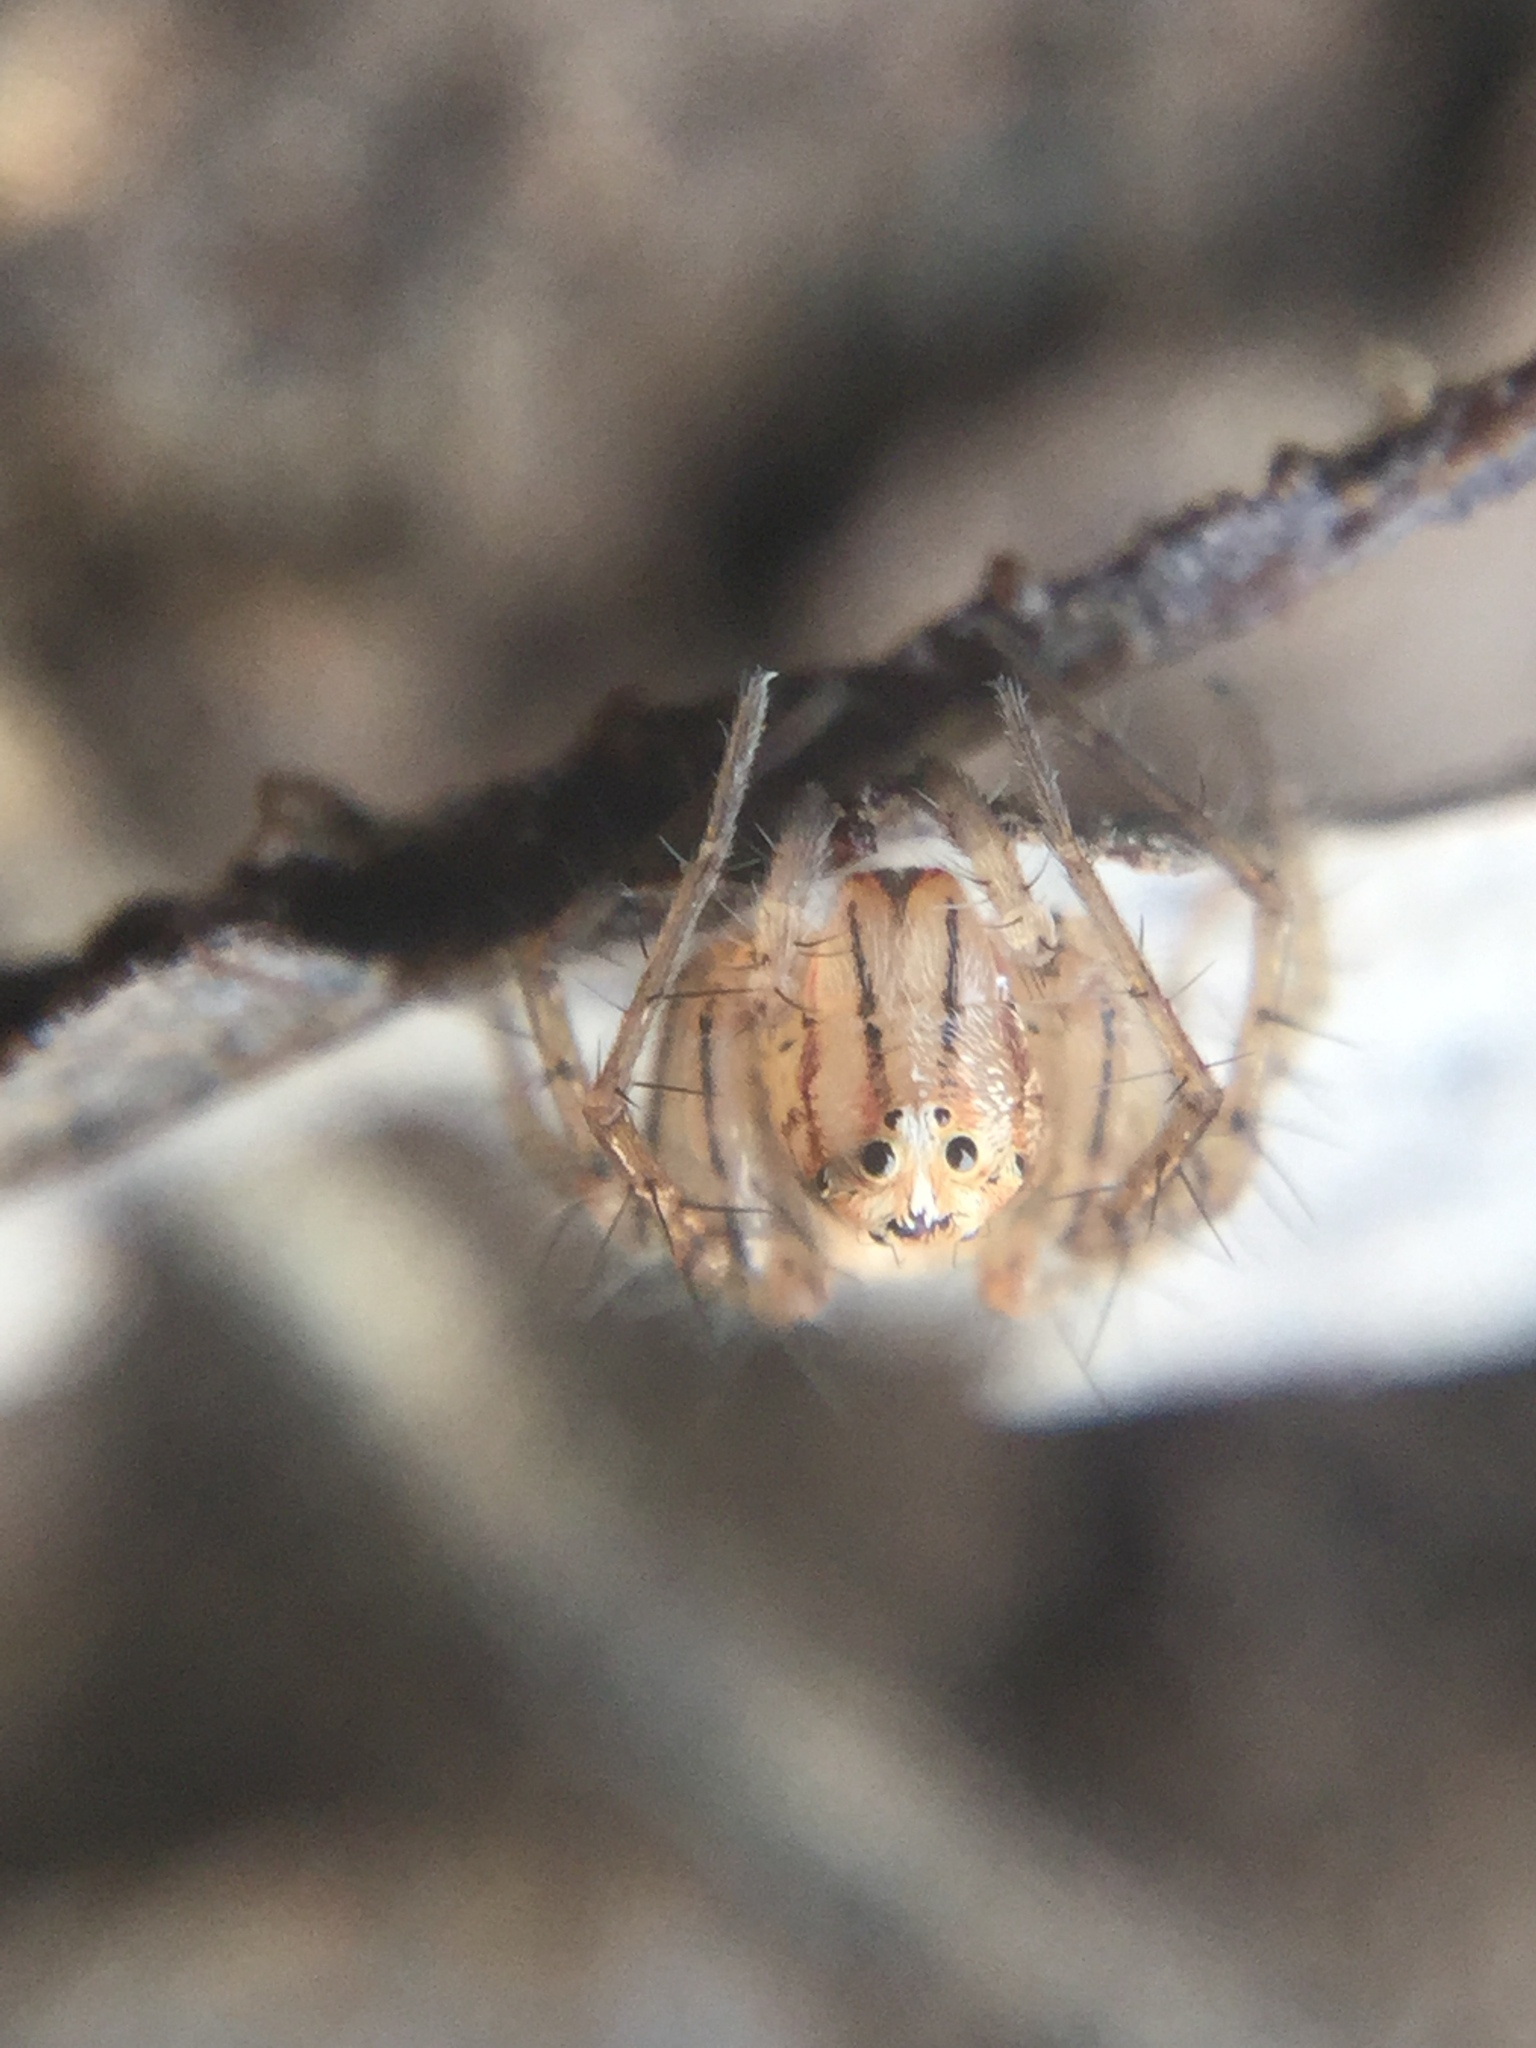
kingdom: Animalia
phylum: Arthropoda
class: Arachnida
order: Araneae
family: Oxyopidae
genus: Oxyopes
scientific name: Oxyopes aglossus
